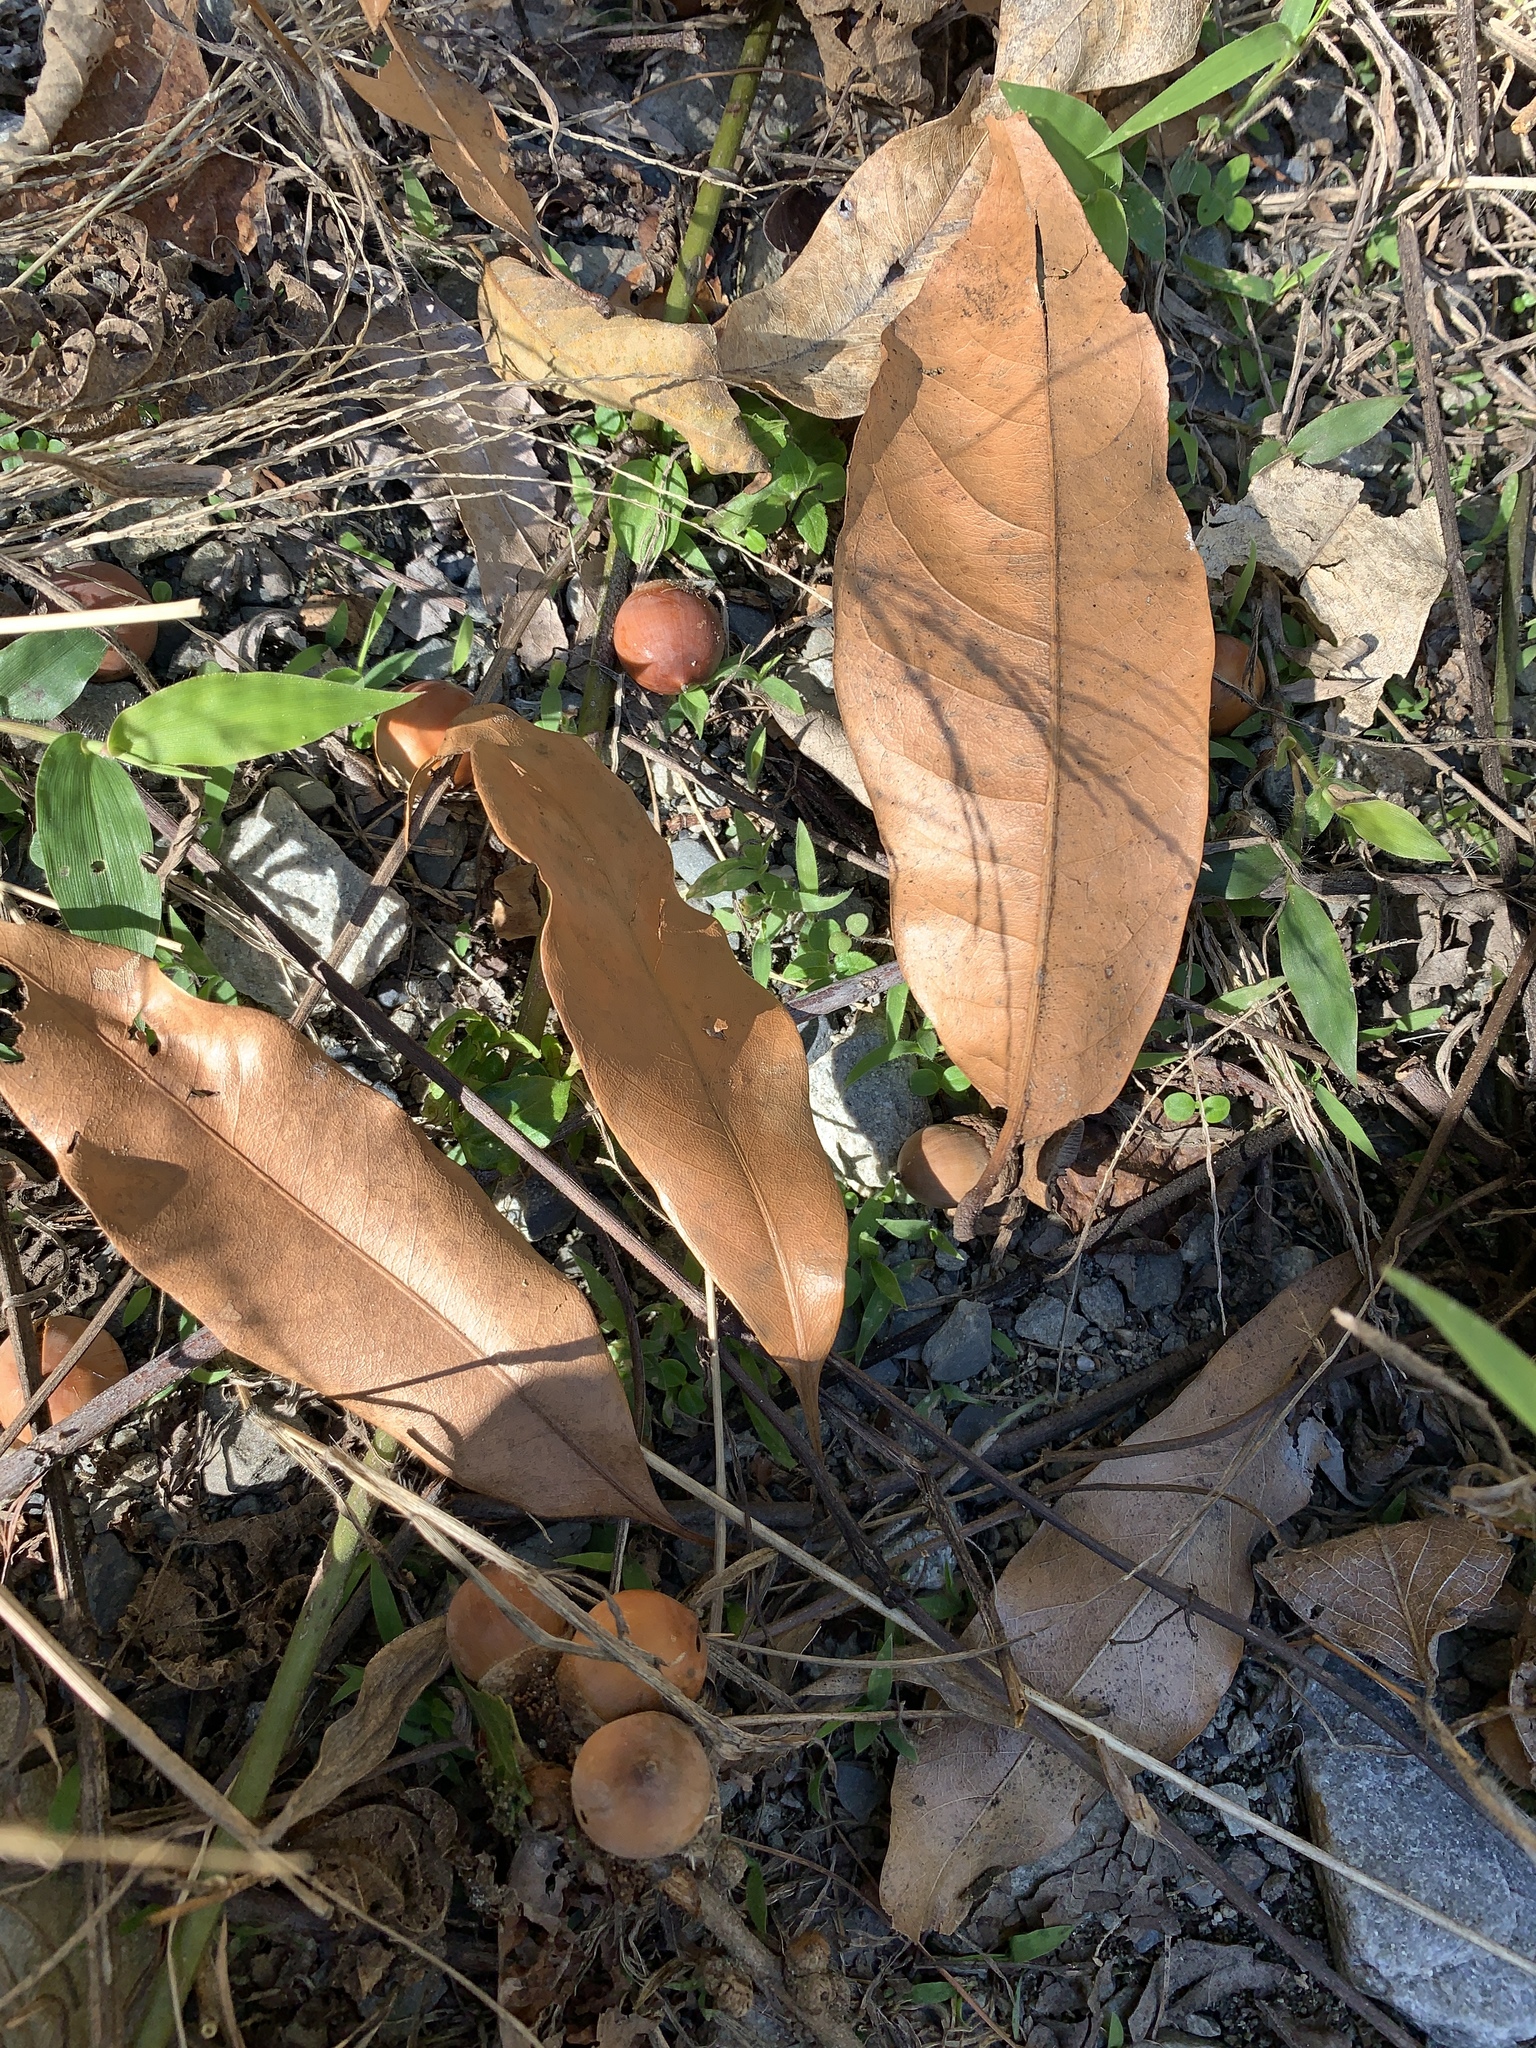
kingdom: Plantae
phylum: Tracheophyta
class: Magnoliopsida
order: Fagales
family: Fagaceae
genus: Lithocarpus
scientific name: Lithocarpus hancei
